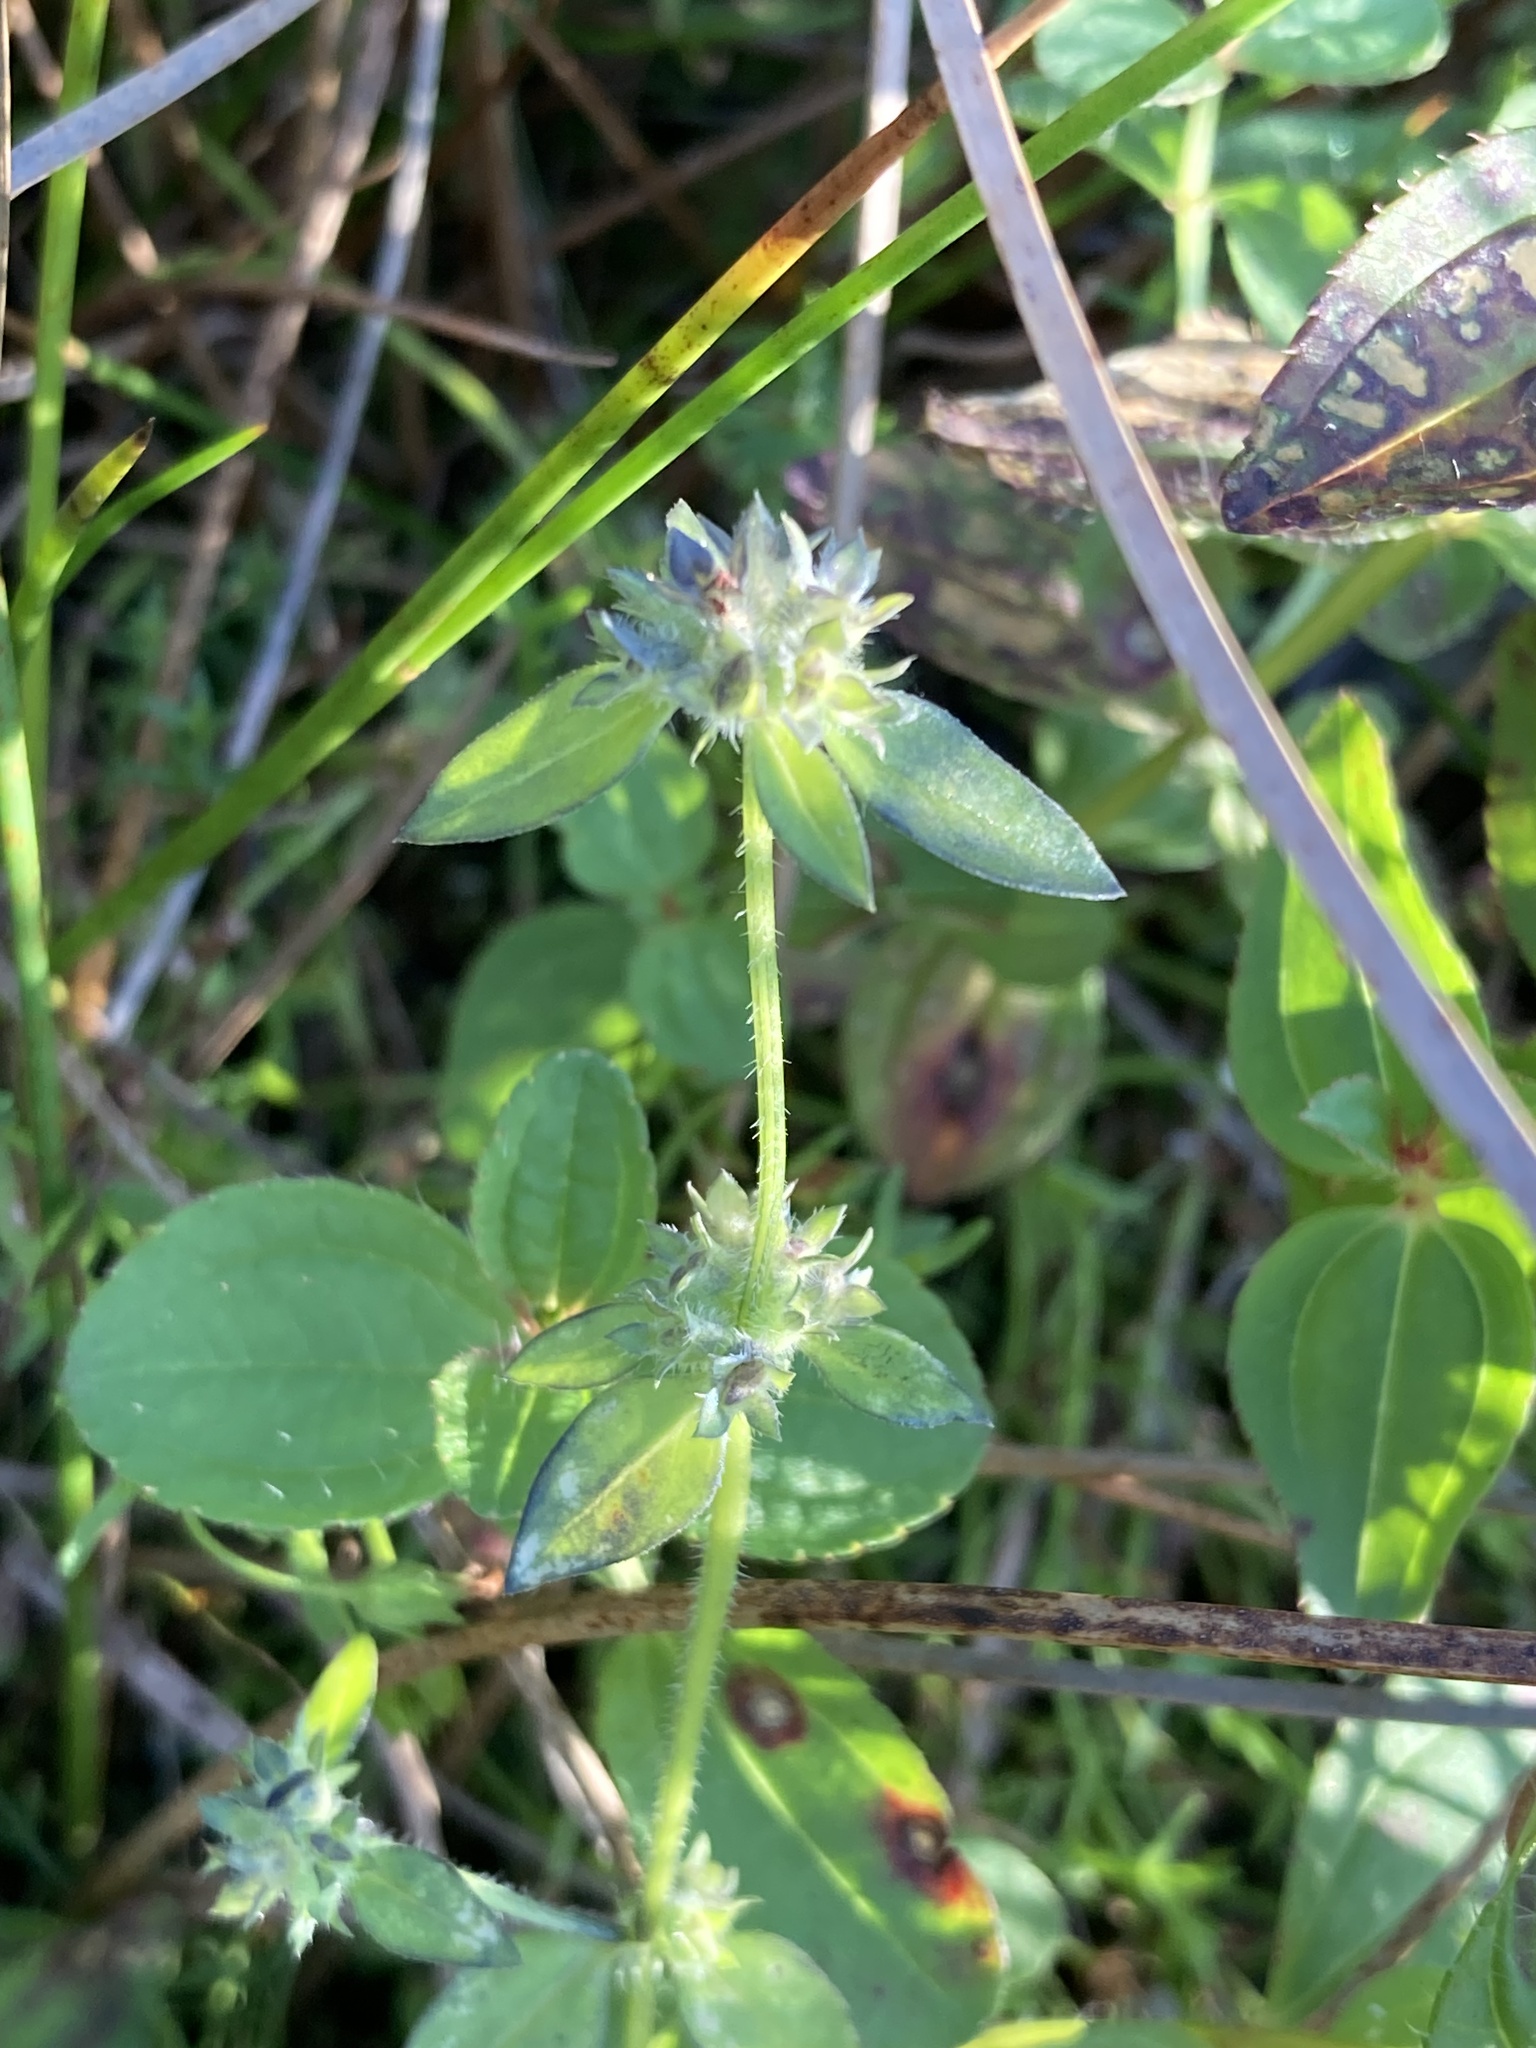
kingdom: Plantae
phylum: Tracheophyta
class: Magnoliopsida
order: Gentianales
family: Rubiaceae
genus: Edrastima
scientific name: Edrastima uniflora
